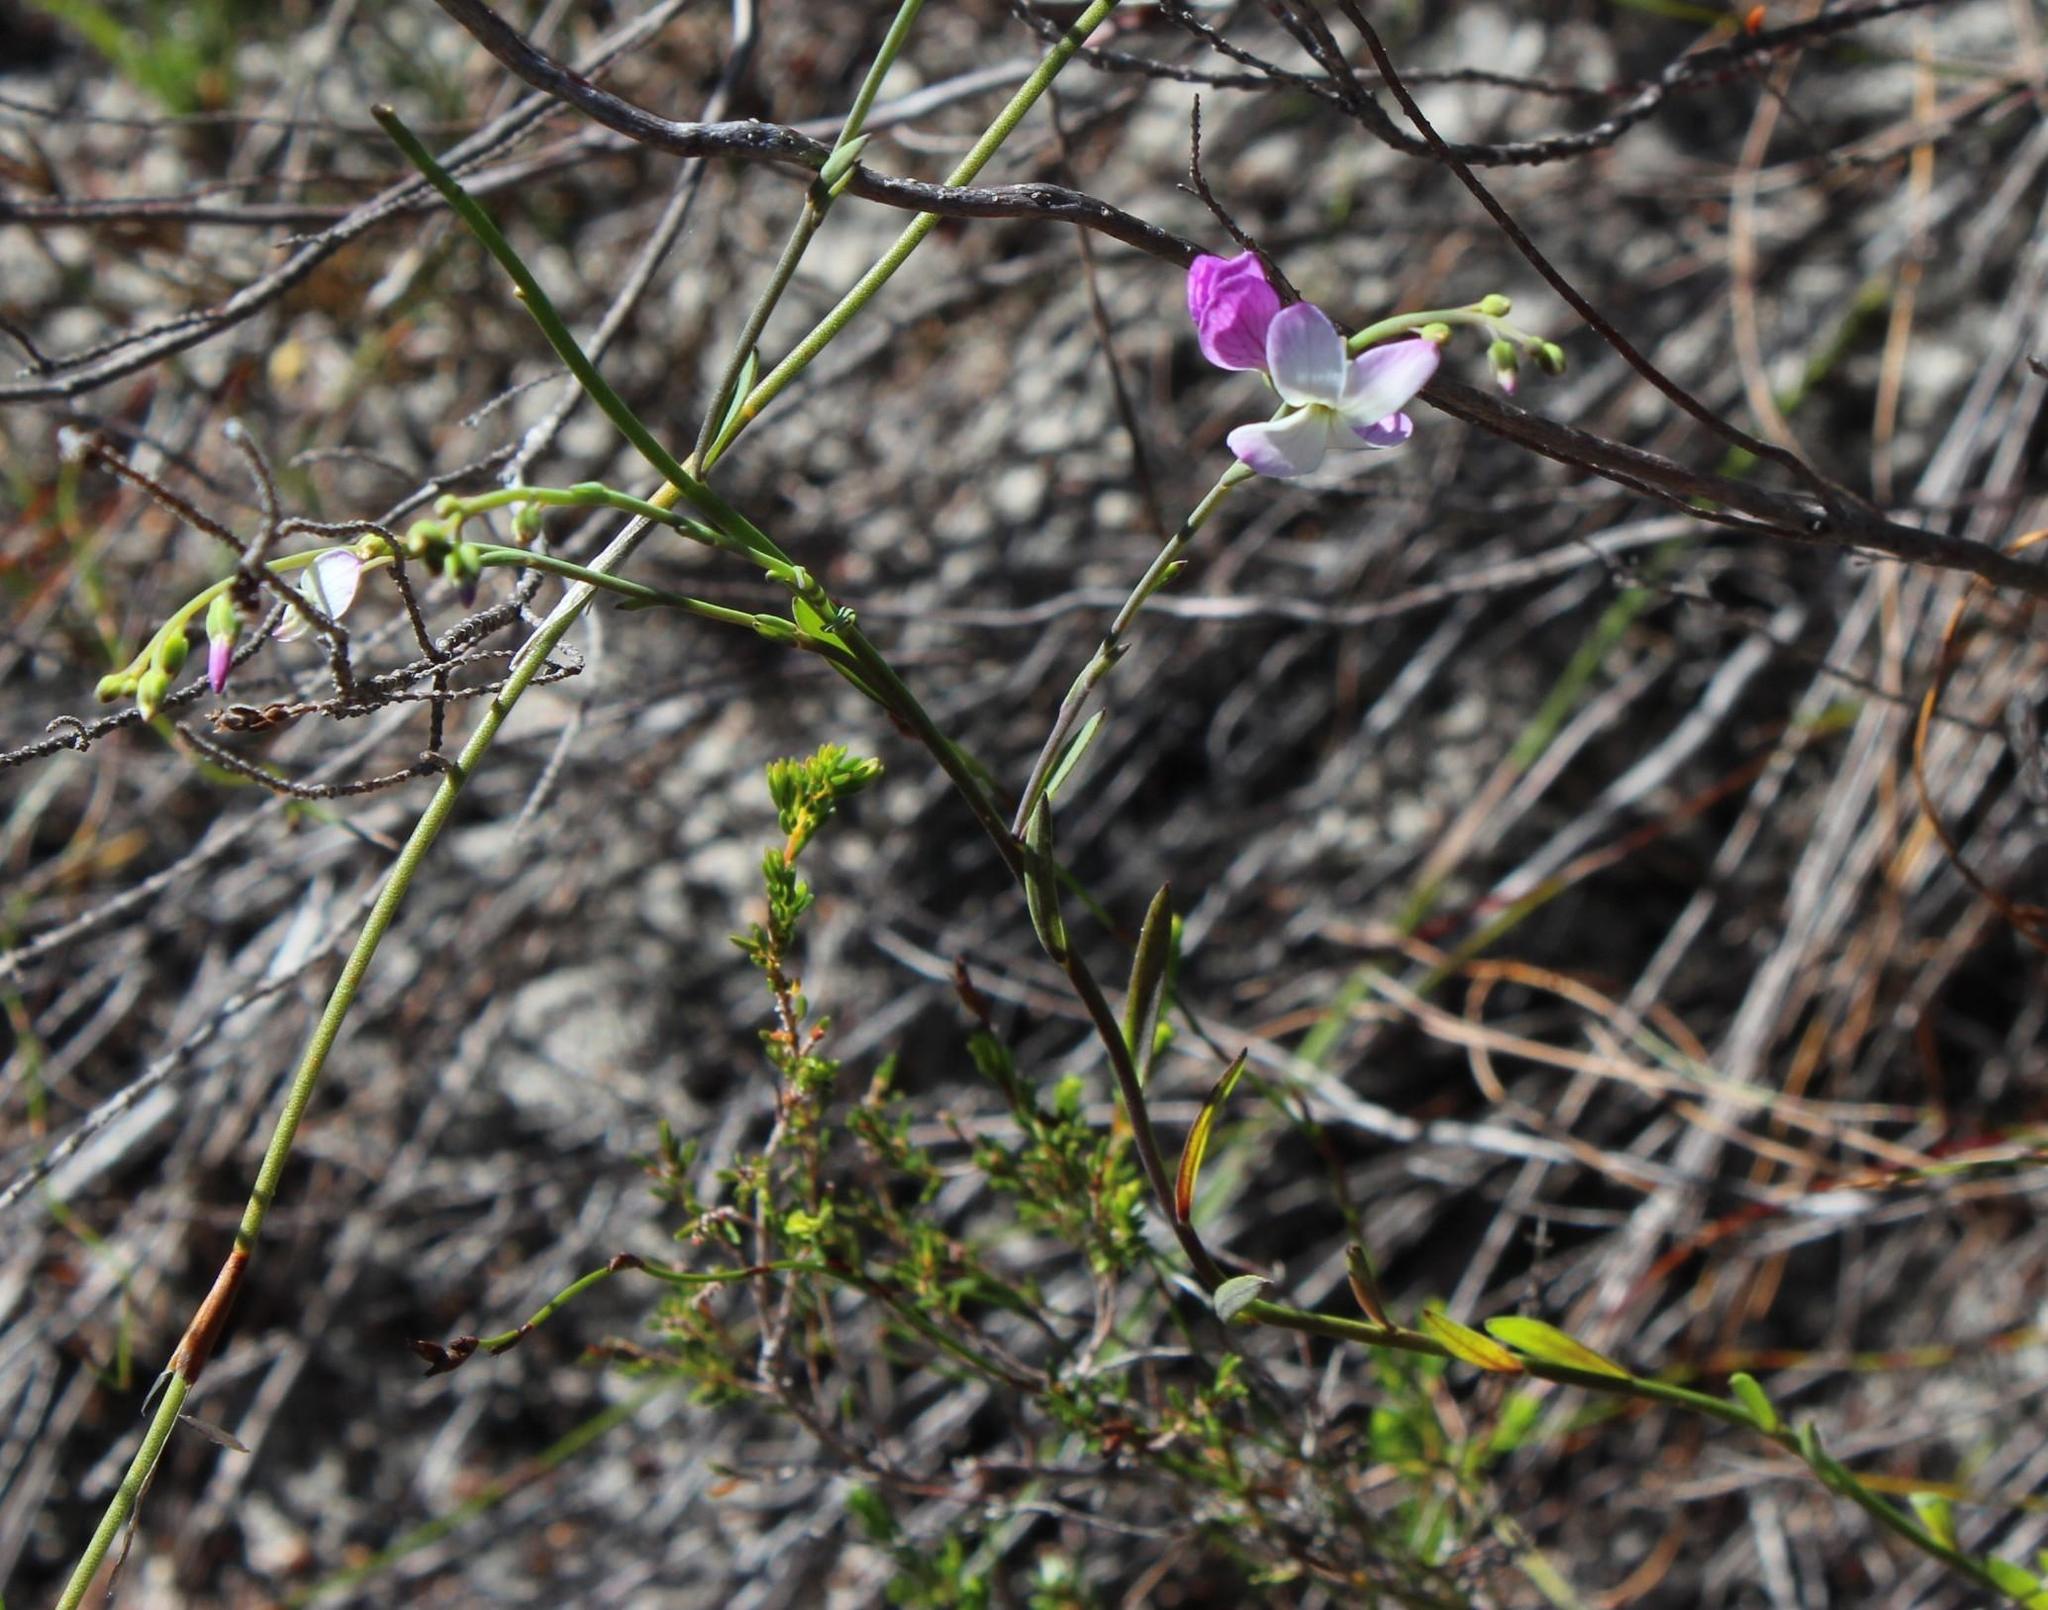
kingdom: Plantae
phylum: Tracheophyta
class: Magnoliopsida
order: Brassicales
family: Brassicaceae
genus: Heliophila
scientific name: Heliophila juncea
